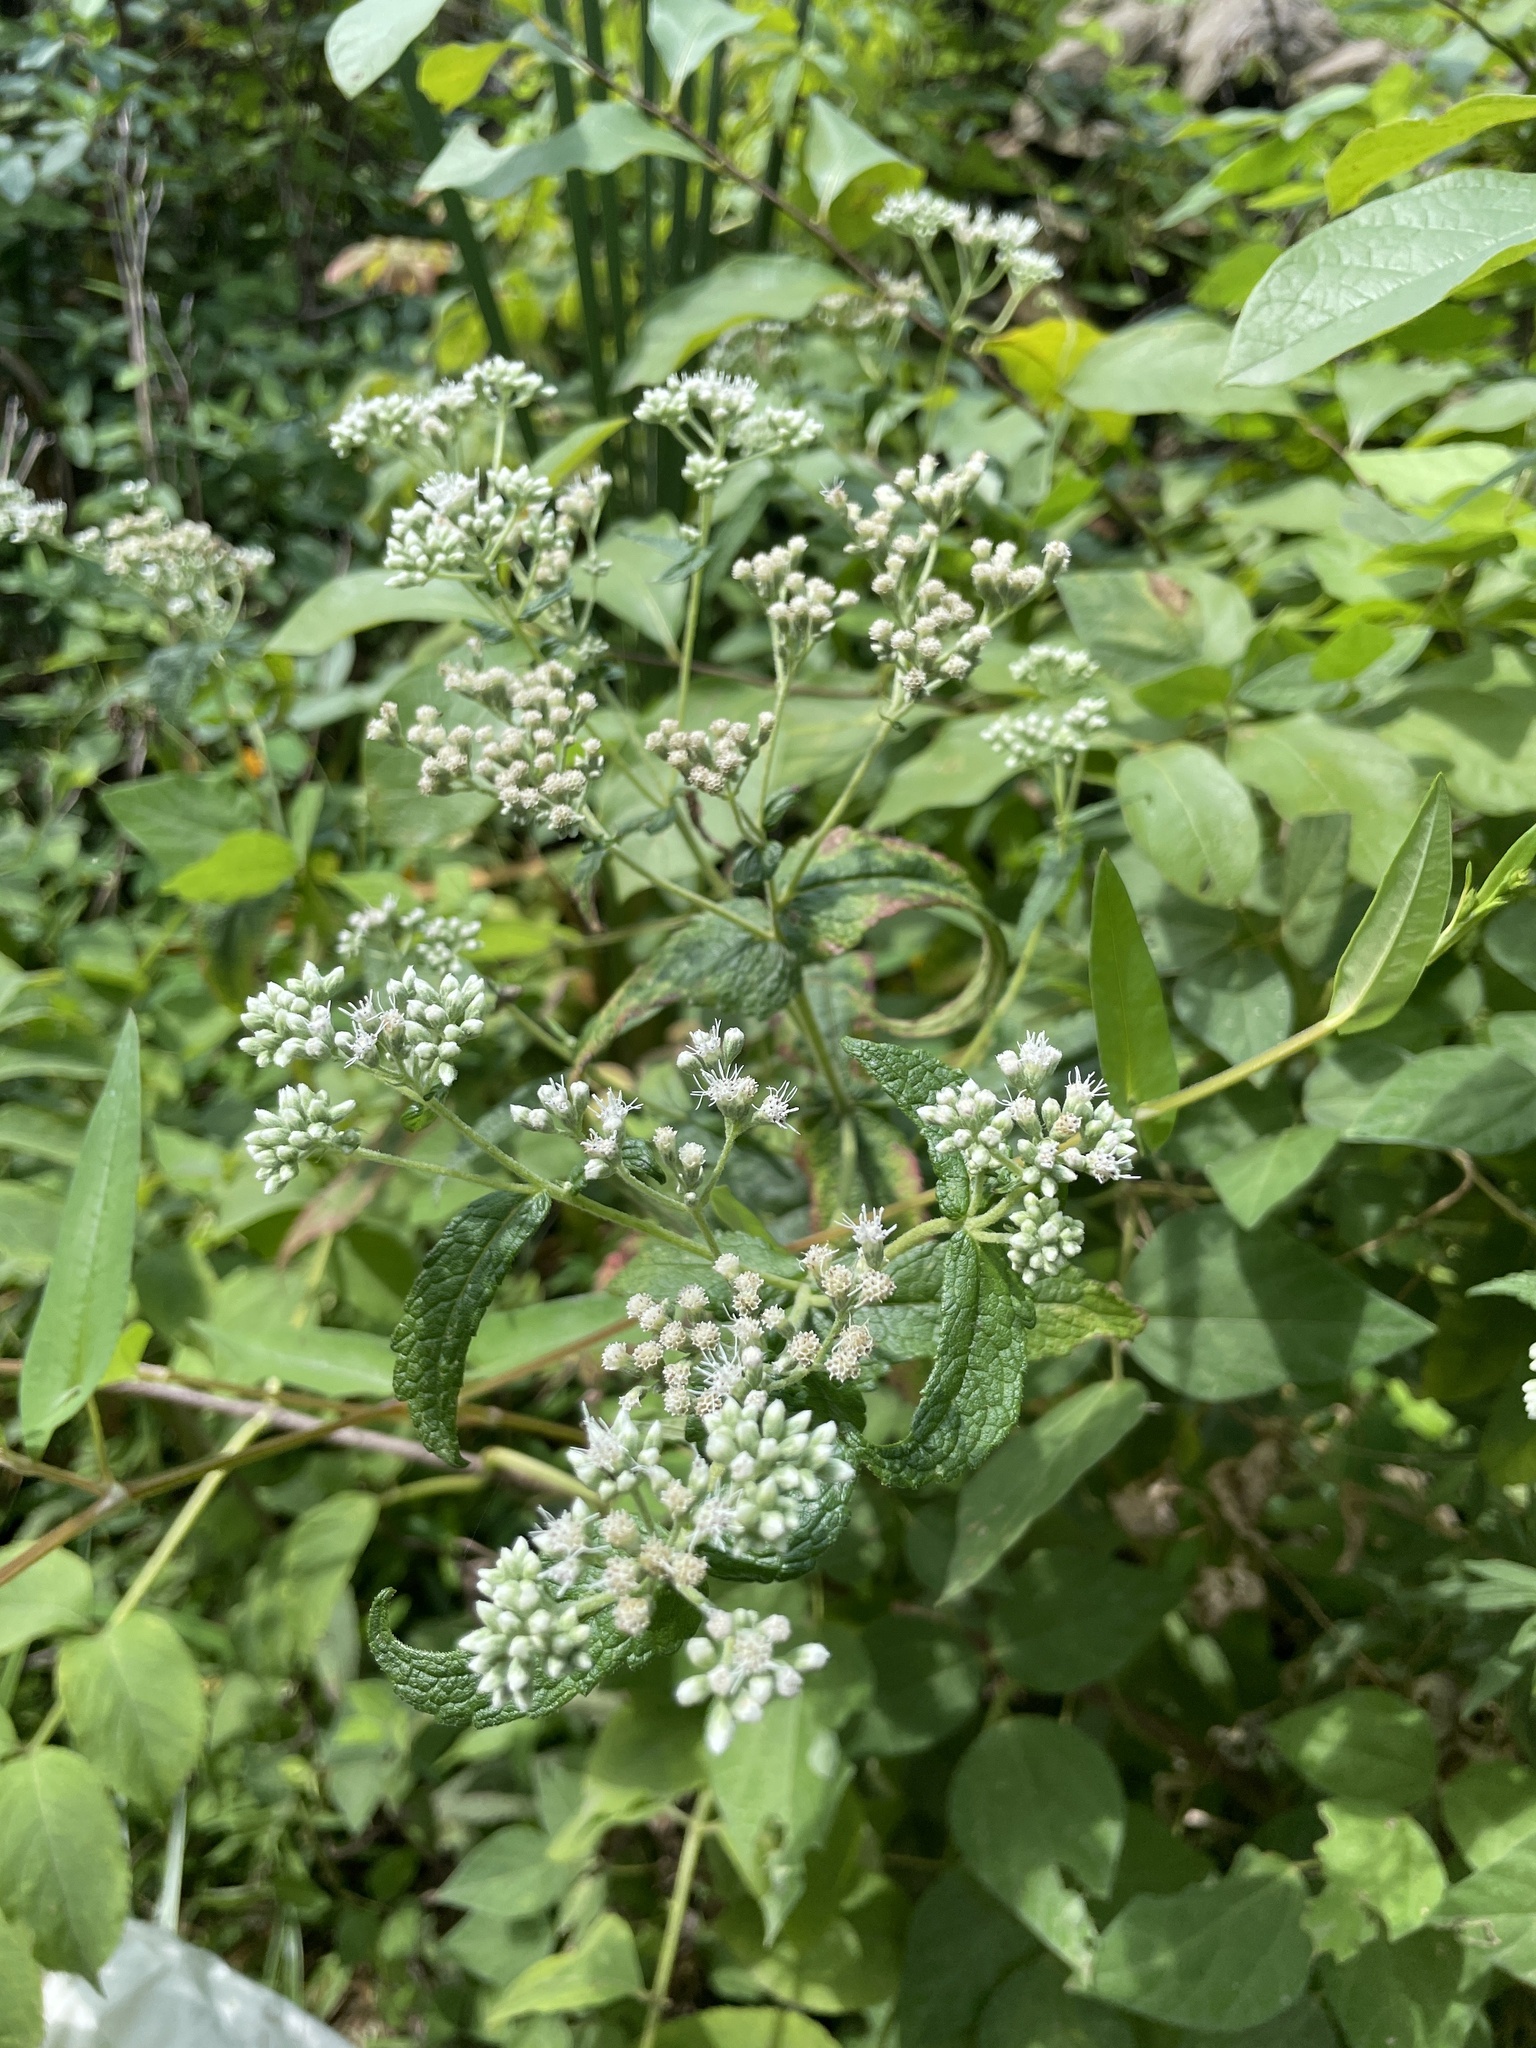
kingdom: Plantae
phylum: Tracheophyta
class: Magnoliopsida
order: Asterales
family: Asteraceae
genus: Eupatorium
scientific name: Eupatorium perfoliatum
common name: Boneset
